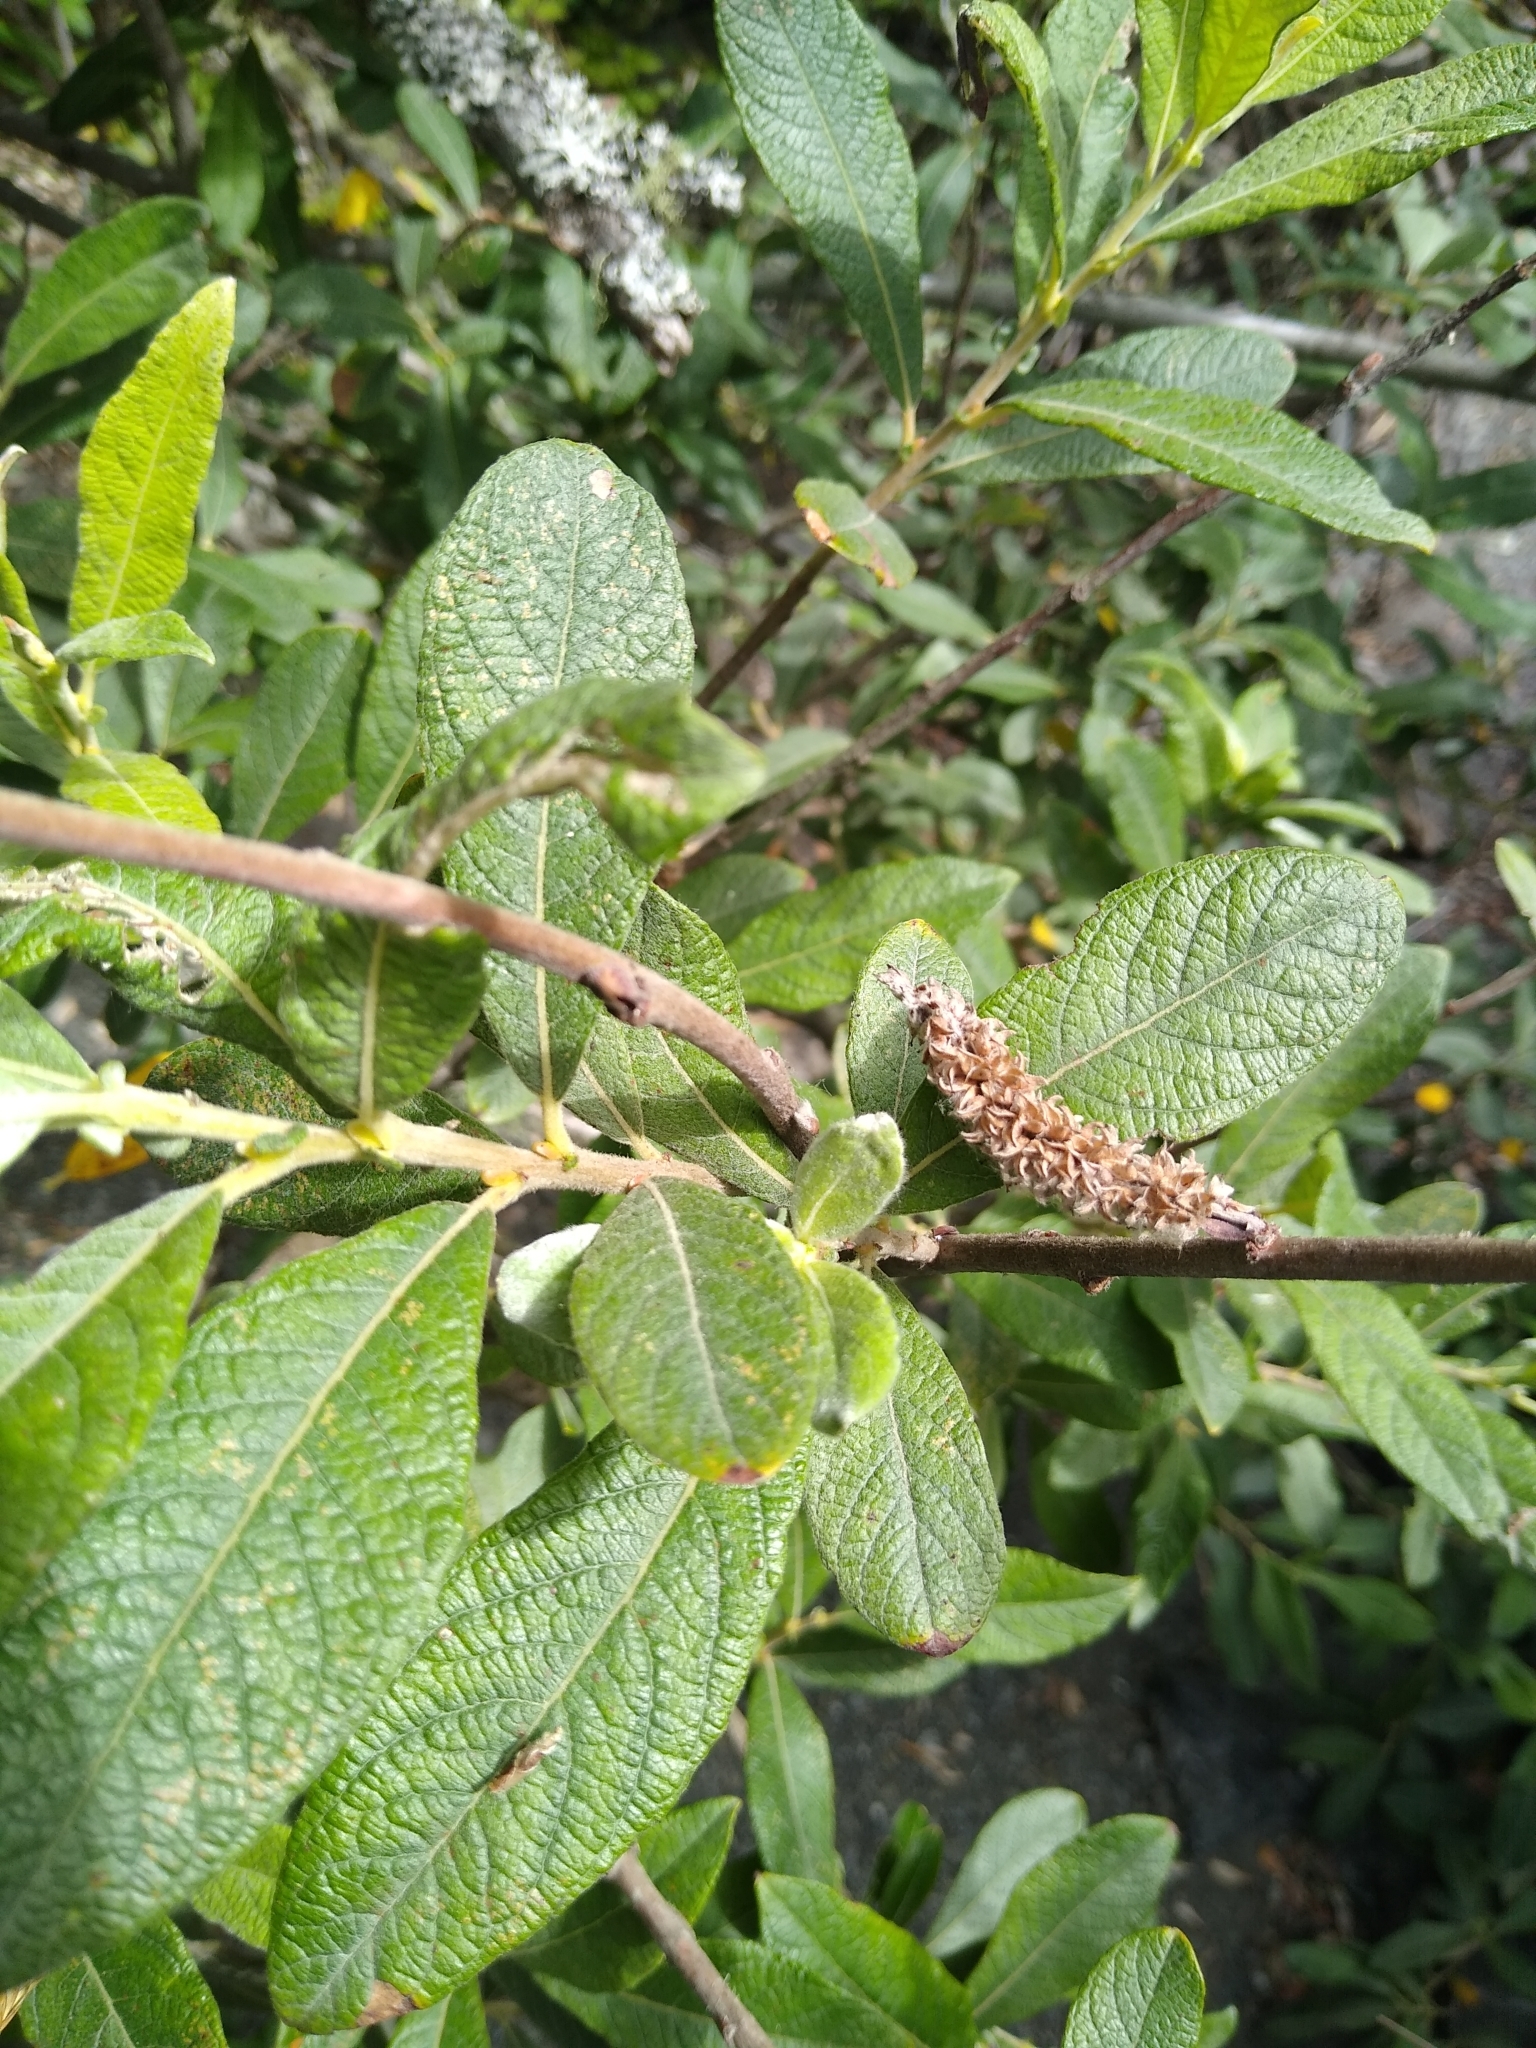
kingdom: Plantae
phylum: Tracheophyta
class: Magnoliopsida
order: Malpighiales
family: Salicaceae
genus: Salix
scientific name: Salix sitchensis
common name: Sitka willow
